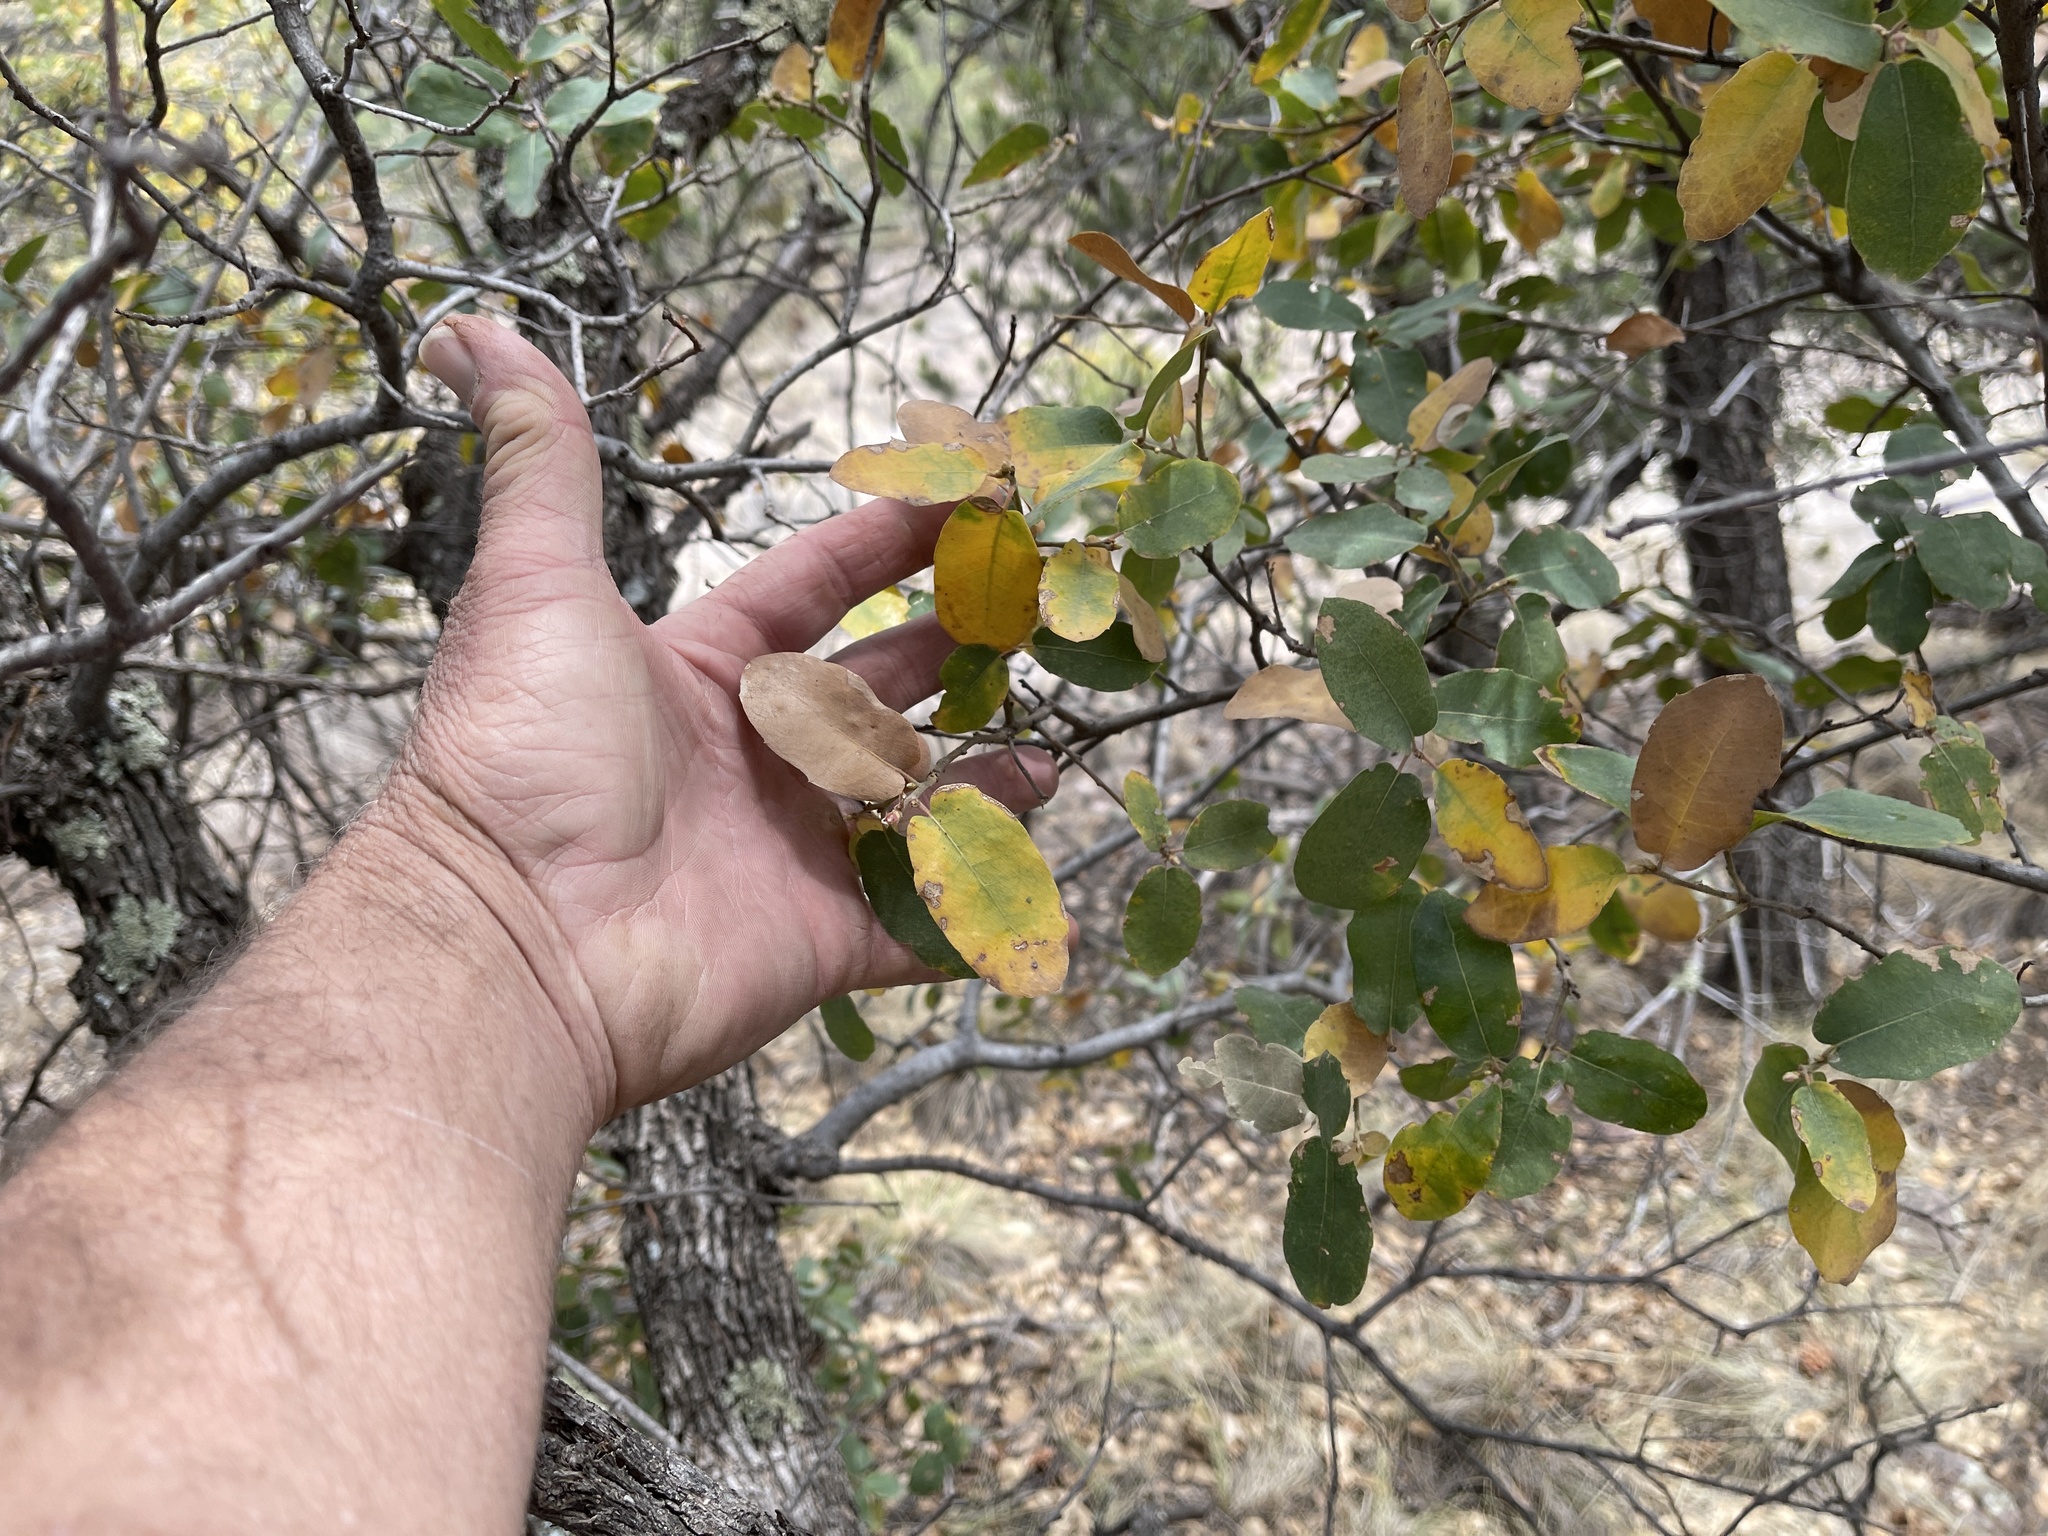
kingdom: Plantae
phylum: Tracheophyta
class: Magnoliopsida
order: Fagales
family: Fagaceae
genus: Quercus
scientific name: Quercus arizonica
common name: Arizona white oak
